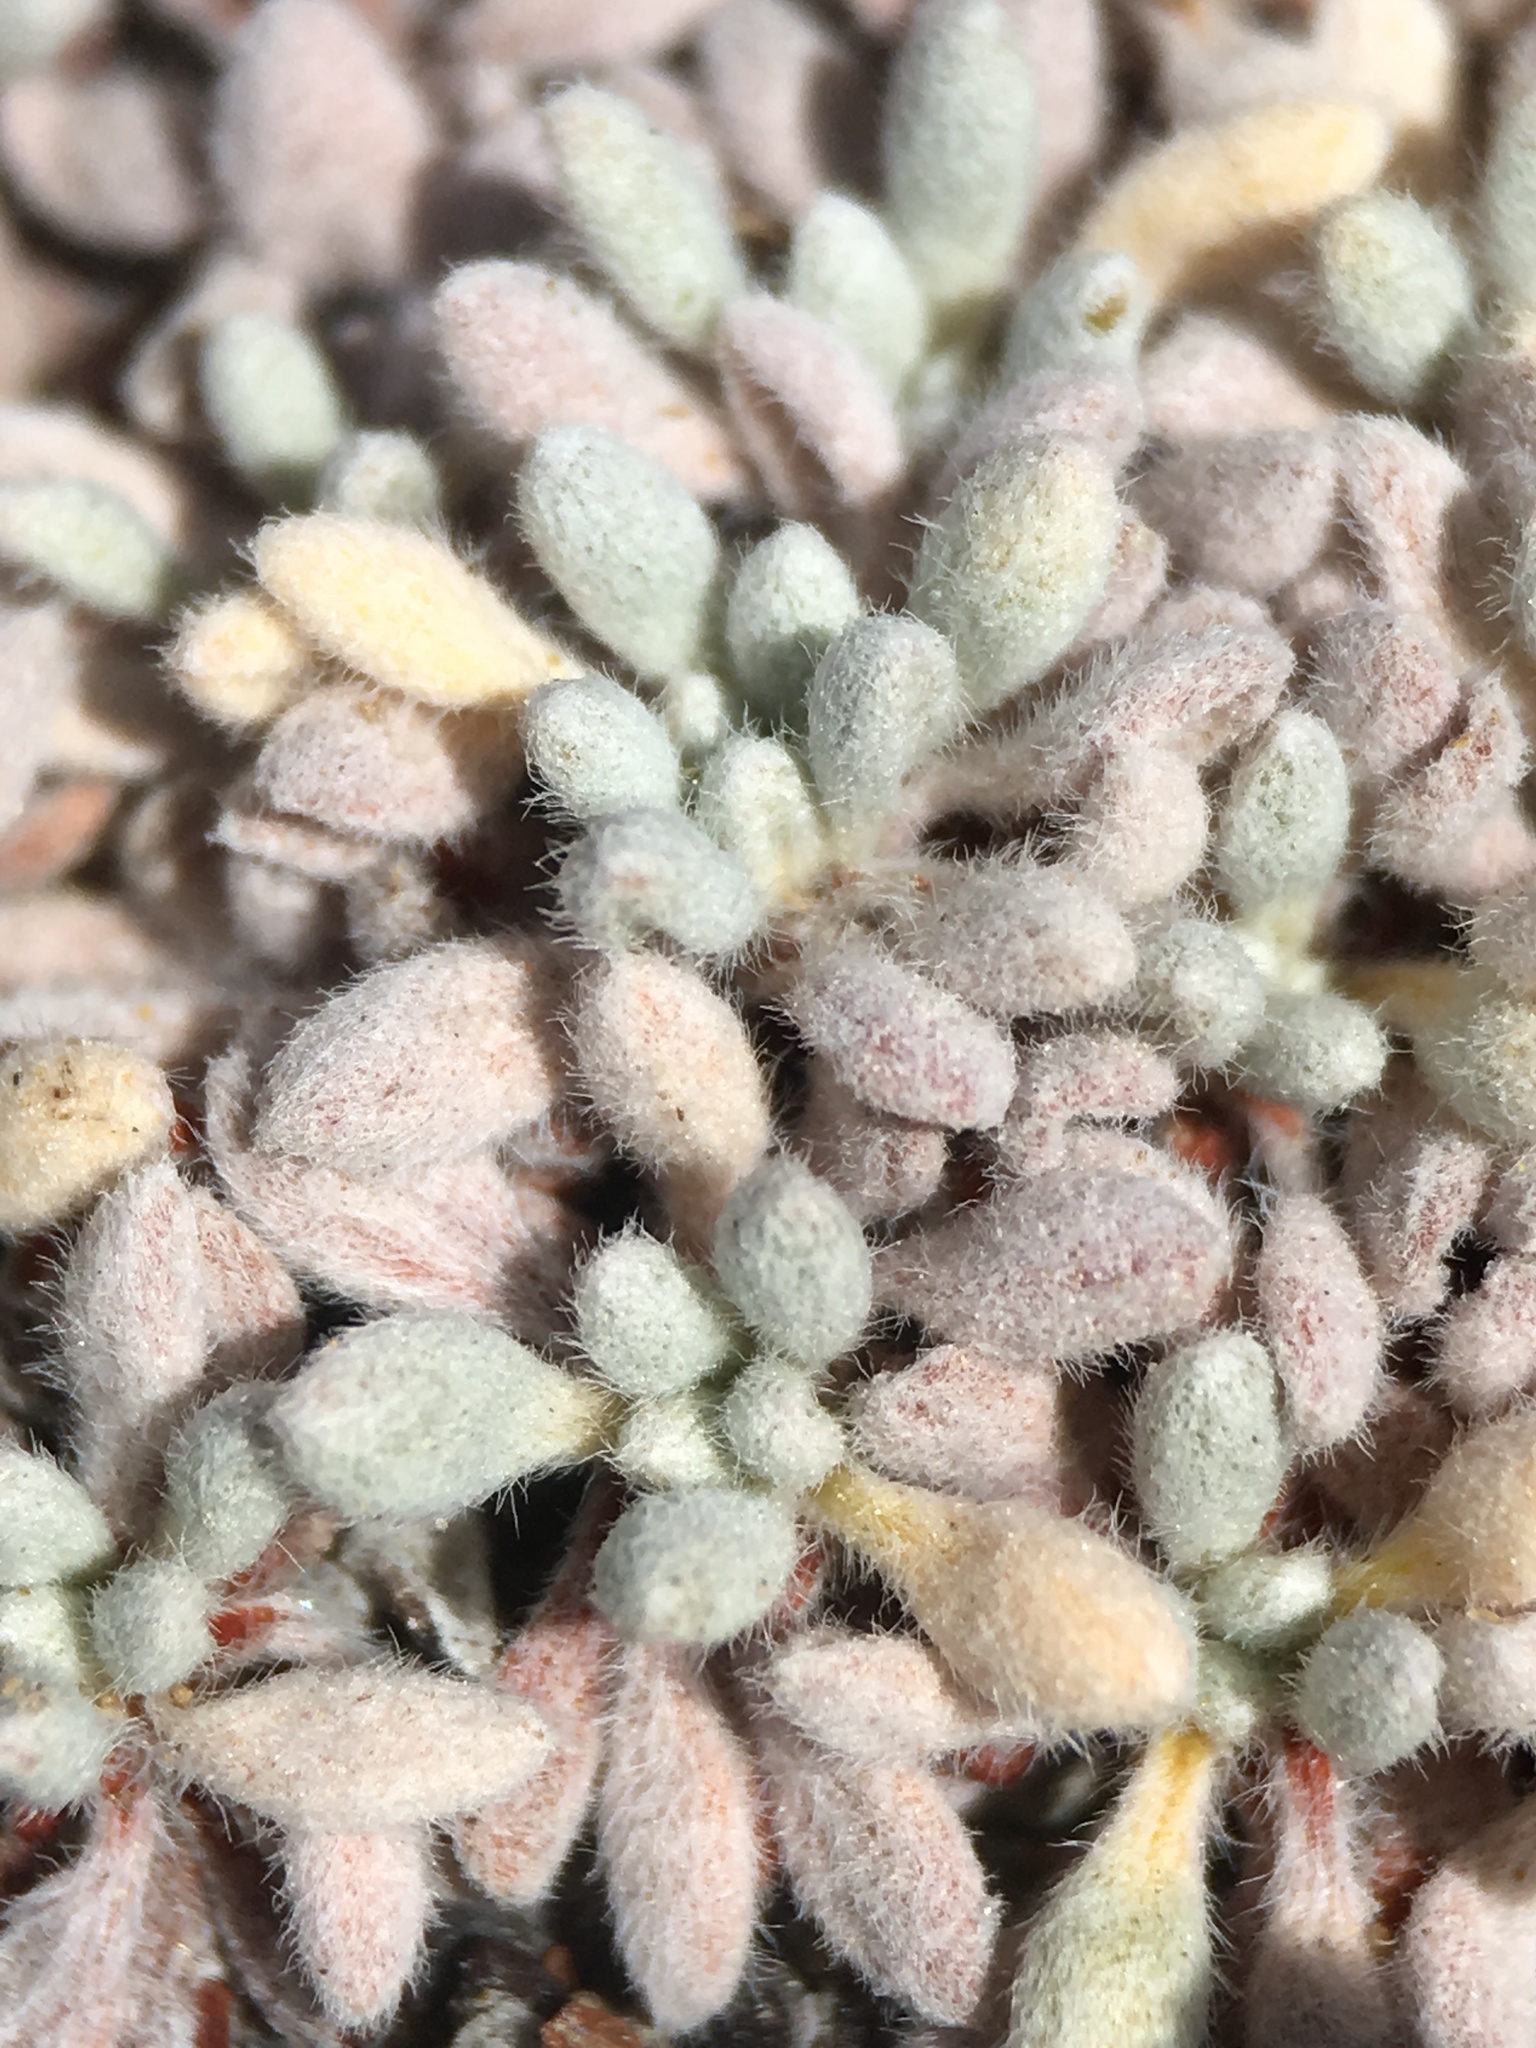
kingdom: Plantae
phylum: Tracheophyta
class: Magnoliopsida
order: Caryophyllales
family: Polygonaceae
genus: Eriogonum
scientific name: Eriogonum caespitosum
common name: Matted wild buckwheat
